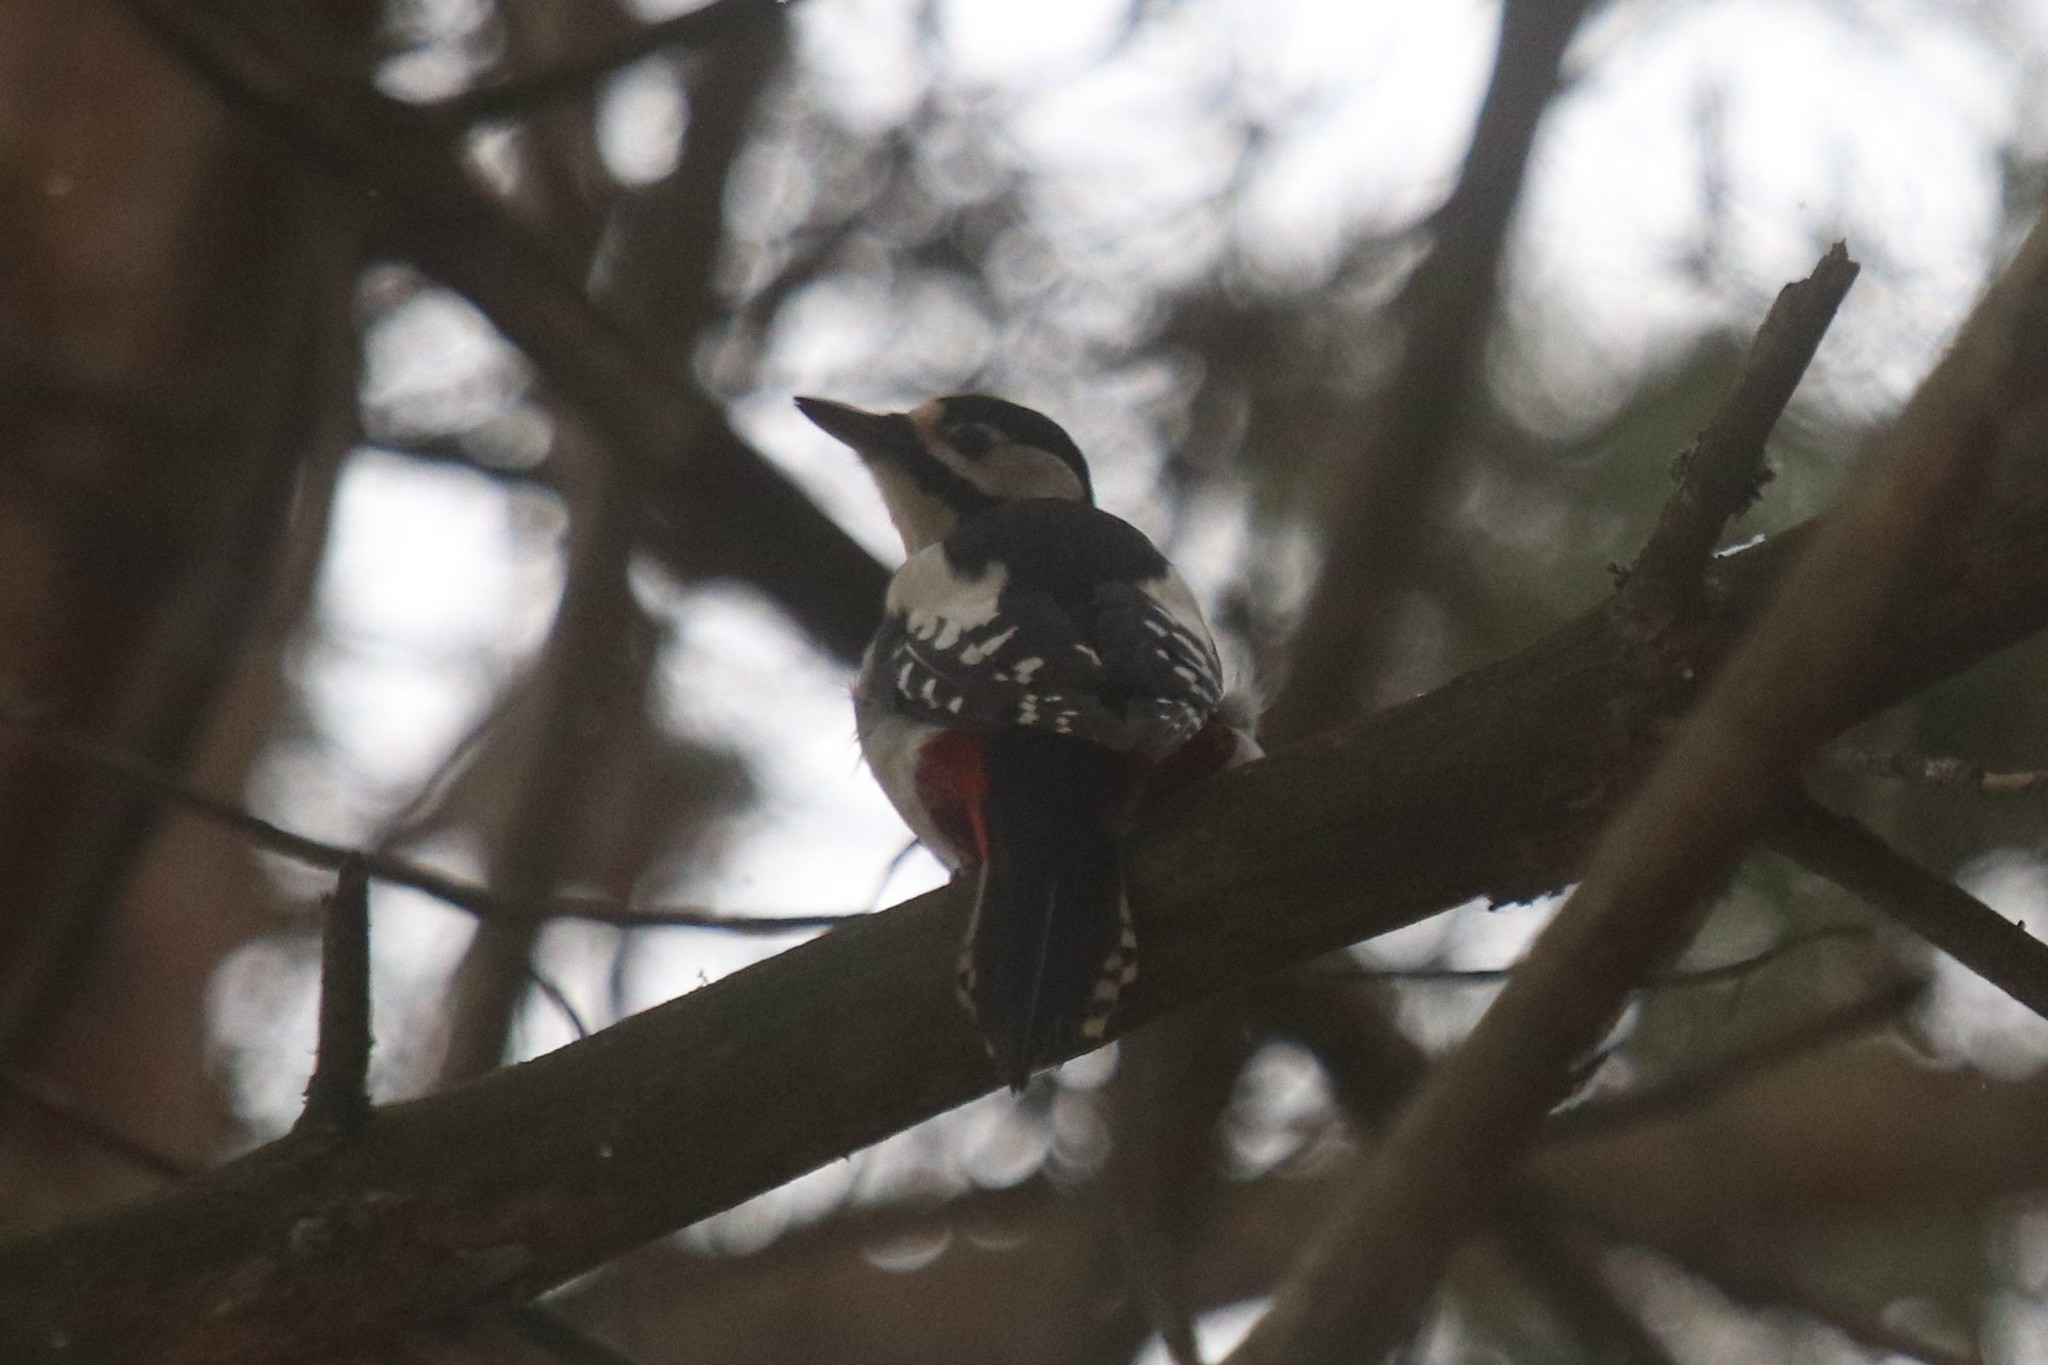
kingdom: Animalia
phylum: Chordata
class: Aves
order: Piciformes
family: Picidae
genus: Dendrocopos
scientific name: Dendrocopos major
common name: Great spotted woodpecker
